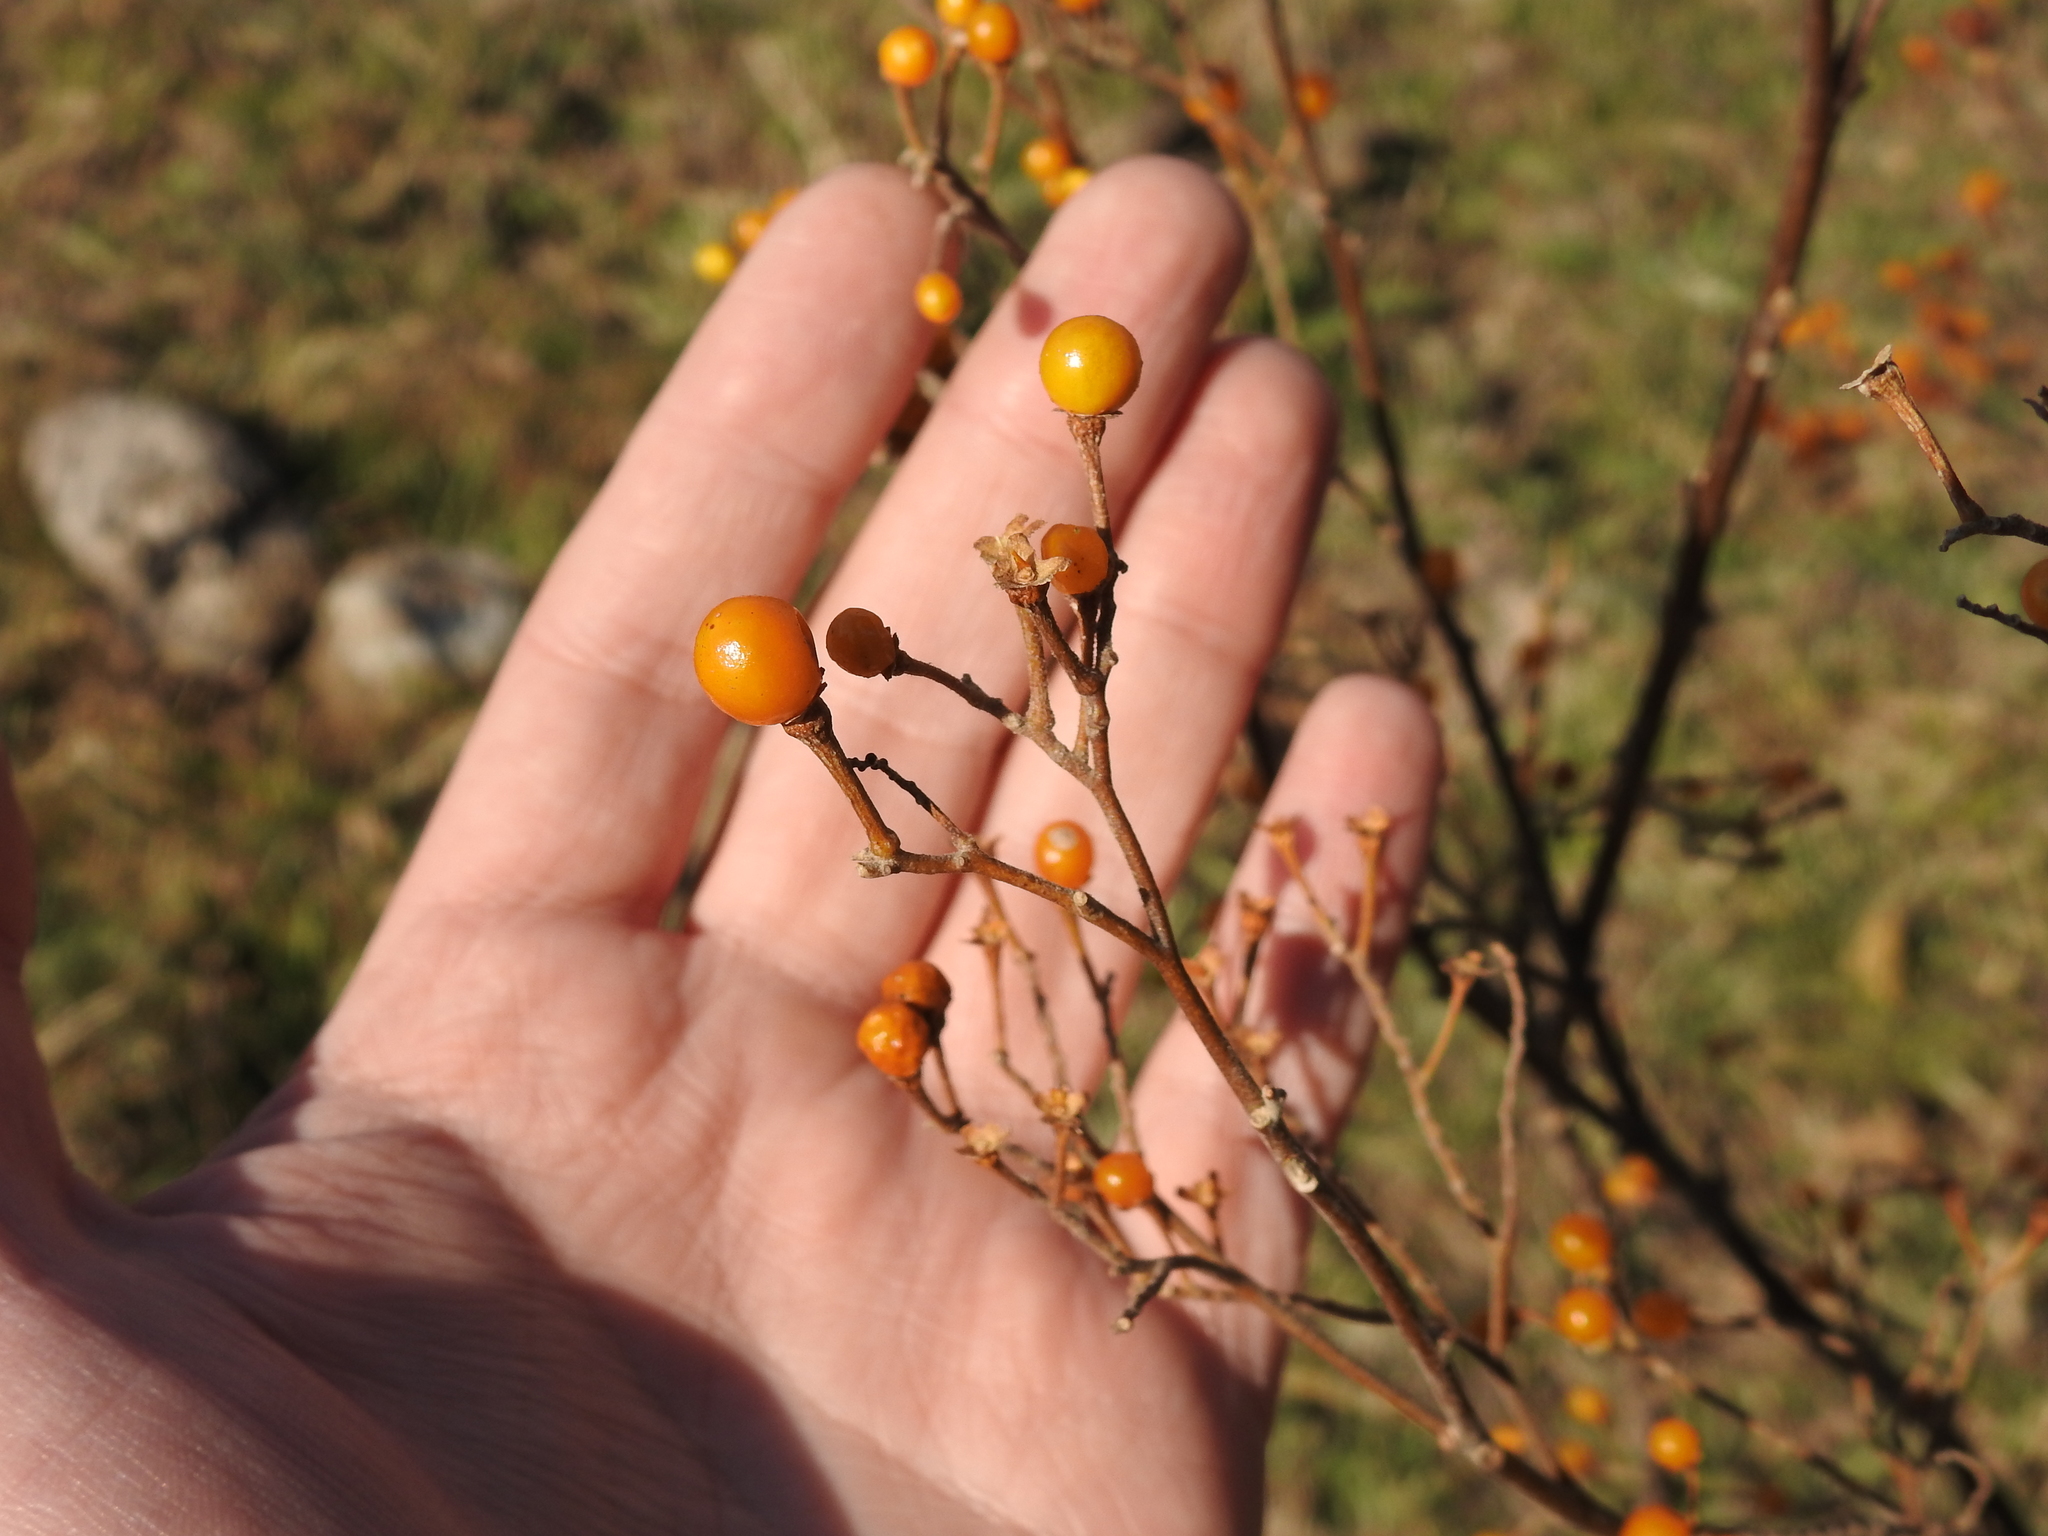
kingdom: Plantae
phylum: Tracheophyta
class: Magnoliopsida
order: Solanales
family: Solanaceae
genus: Solanum
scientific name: Solanum argentinum
